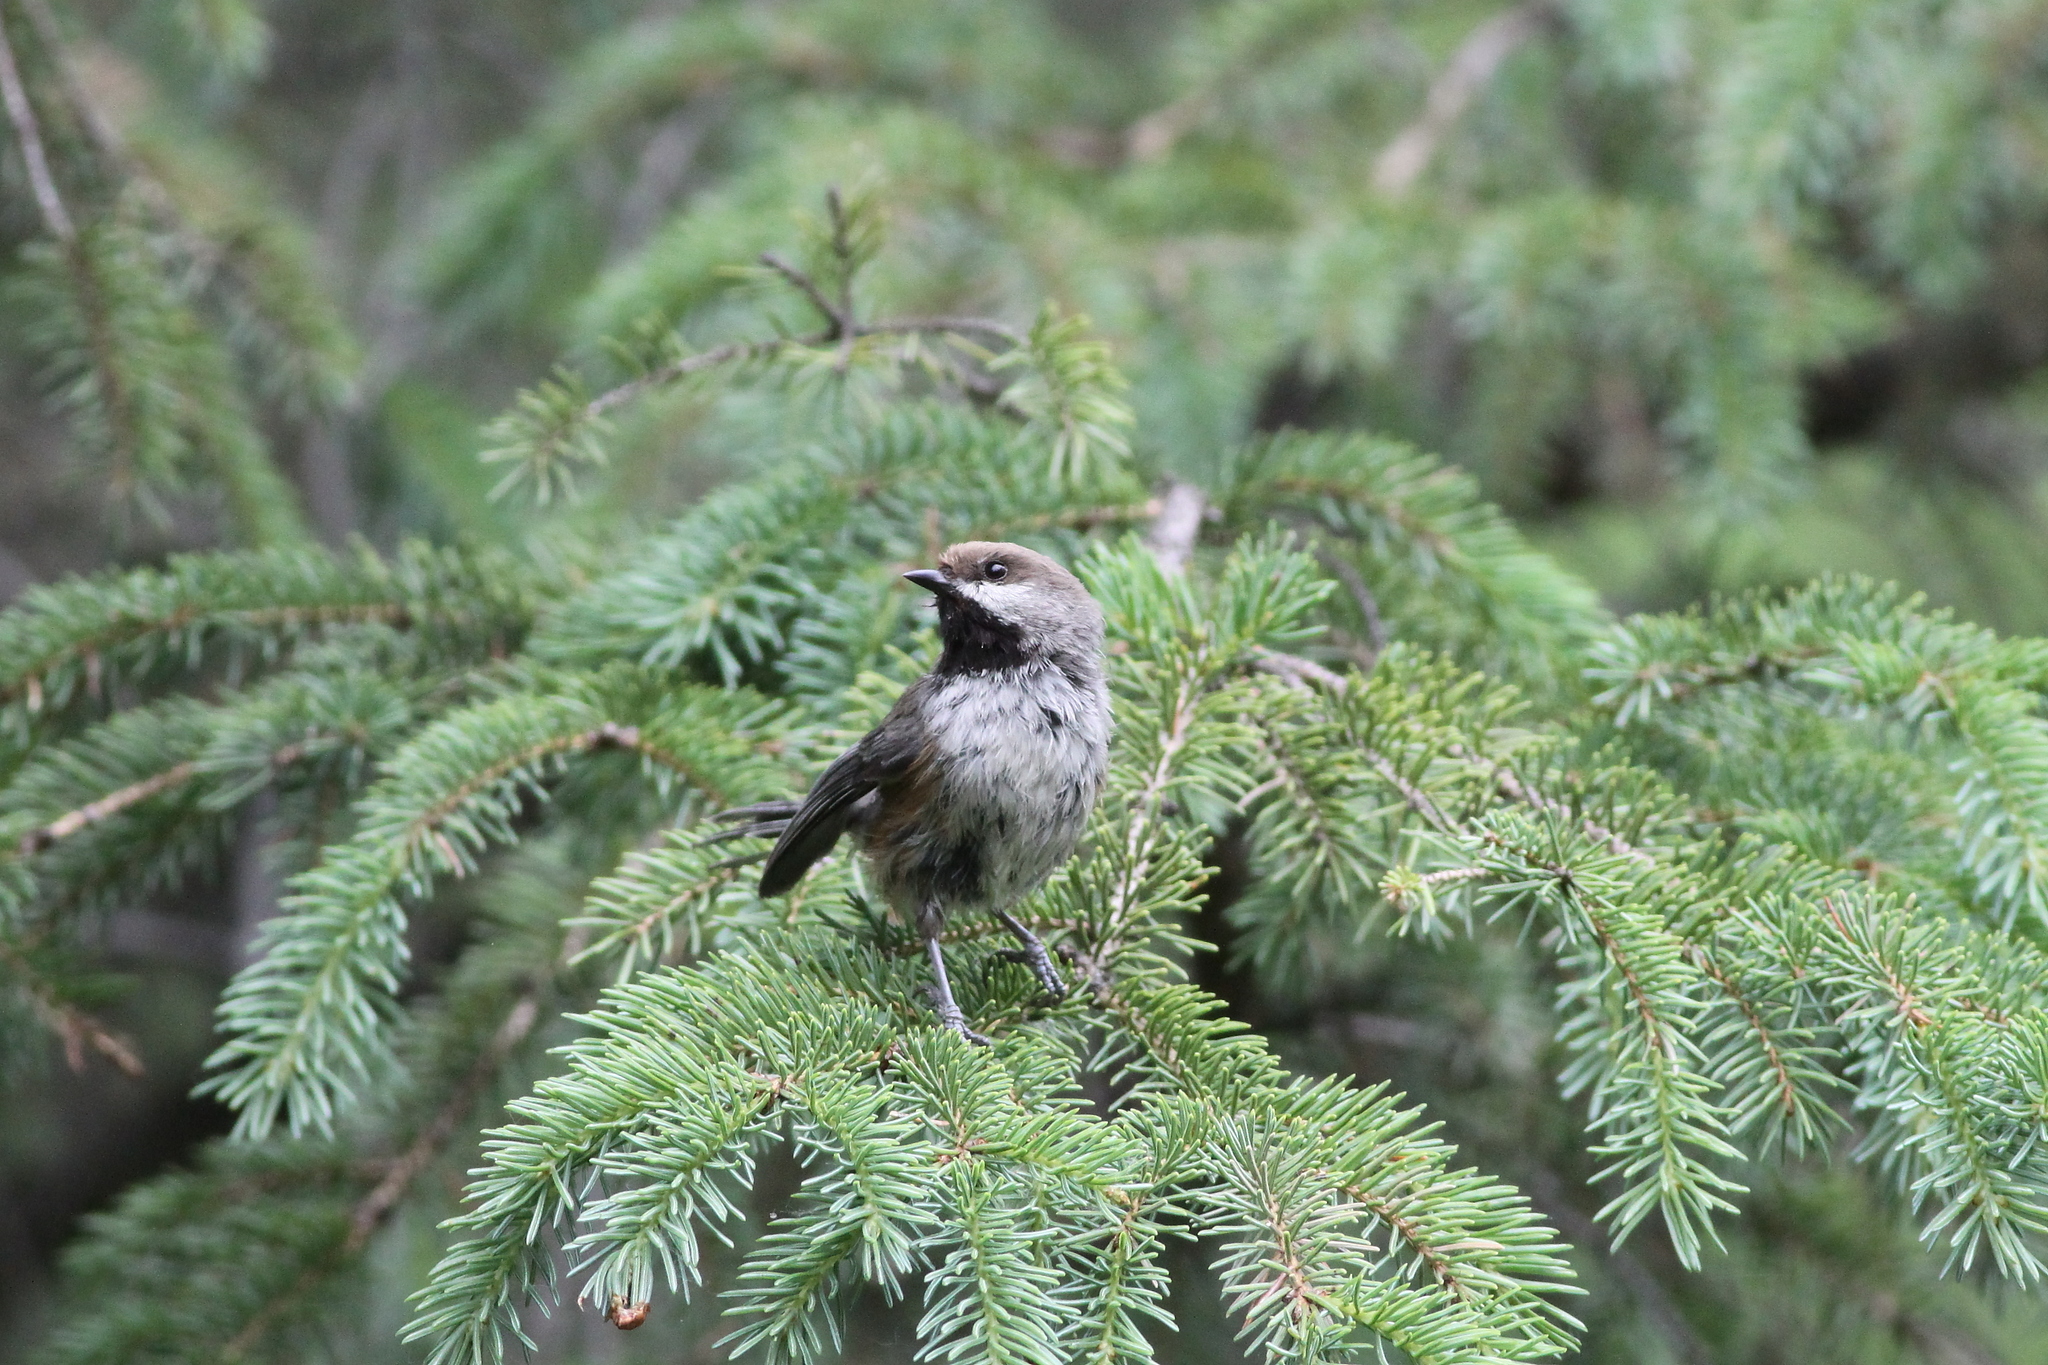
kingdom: Animalia
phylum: Chordata
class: Aves
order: Passeriformes
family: Paridae
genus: Poecile
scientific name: Poecile hudsonicus
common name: Boreal chickadee
